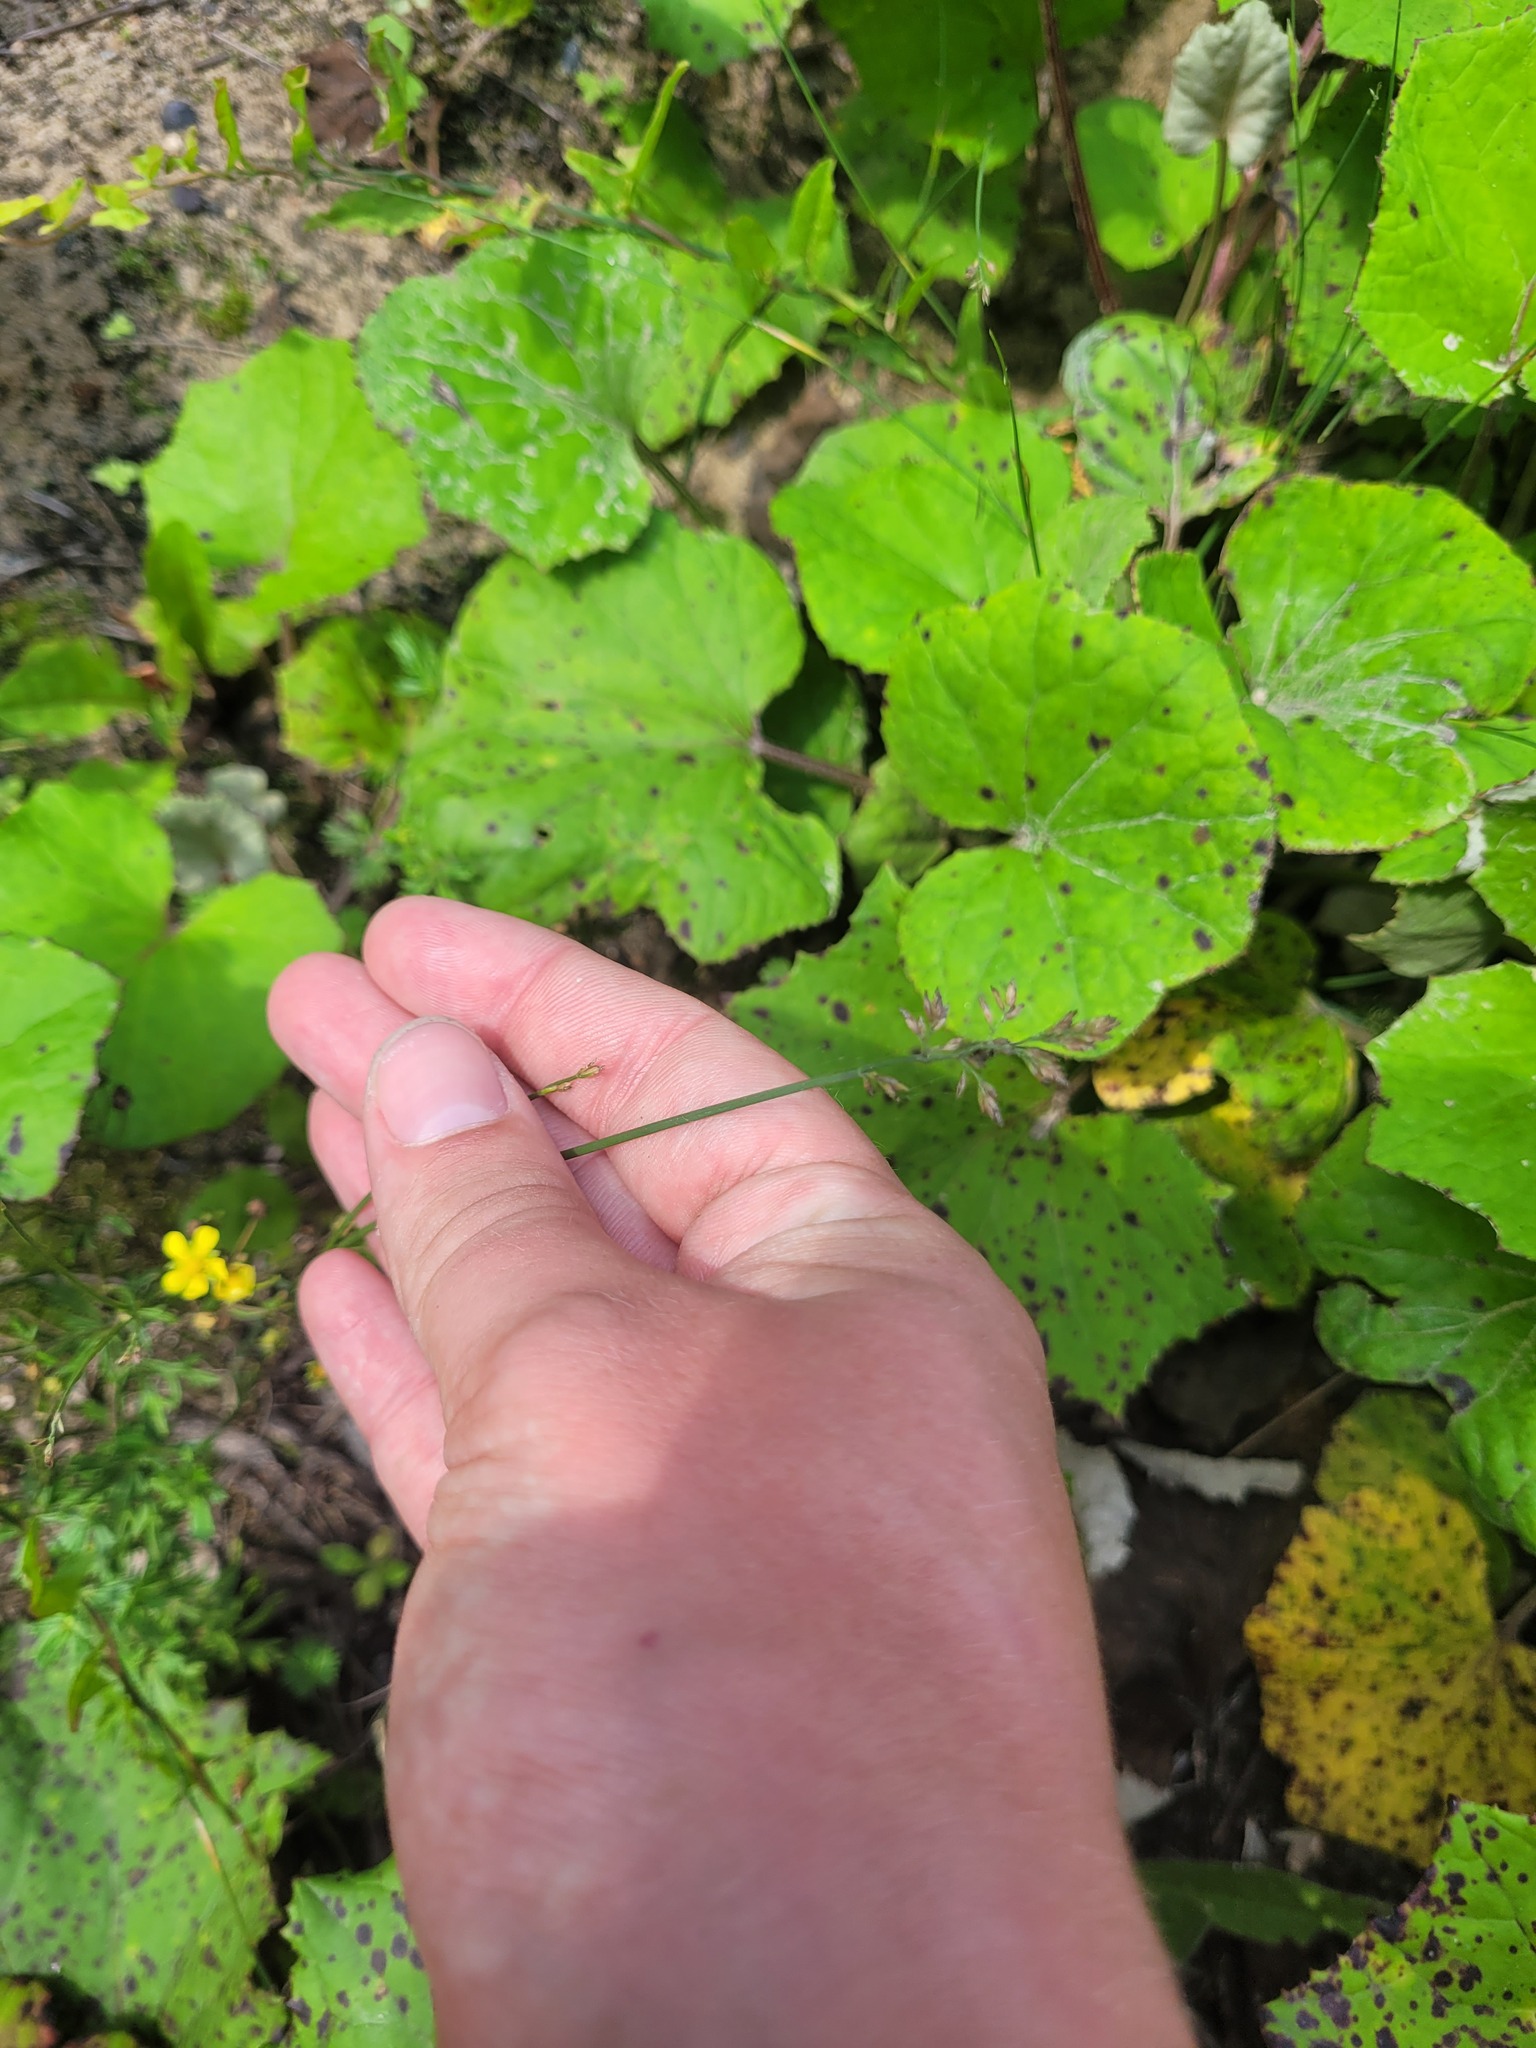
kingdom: Plantae
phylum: Tracheophyta
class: Liliopsida
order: Poales
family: Poaceae
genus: Poa
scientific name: Poa compressa
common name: Canada bluegrass
